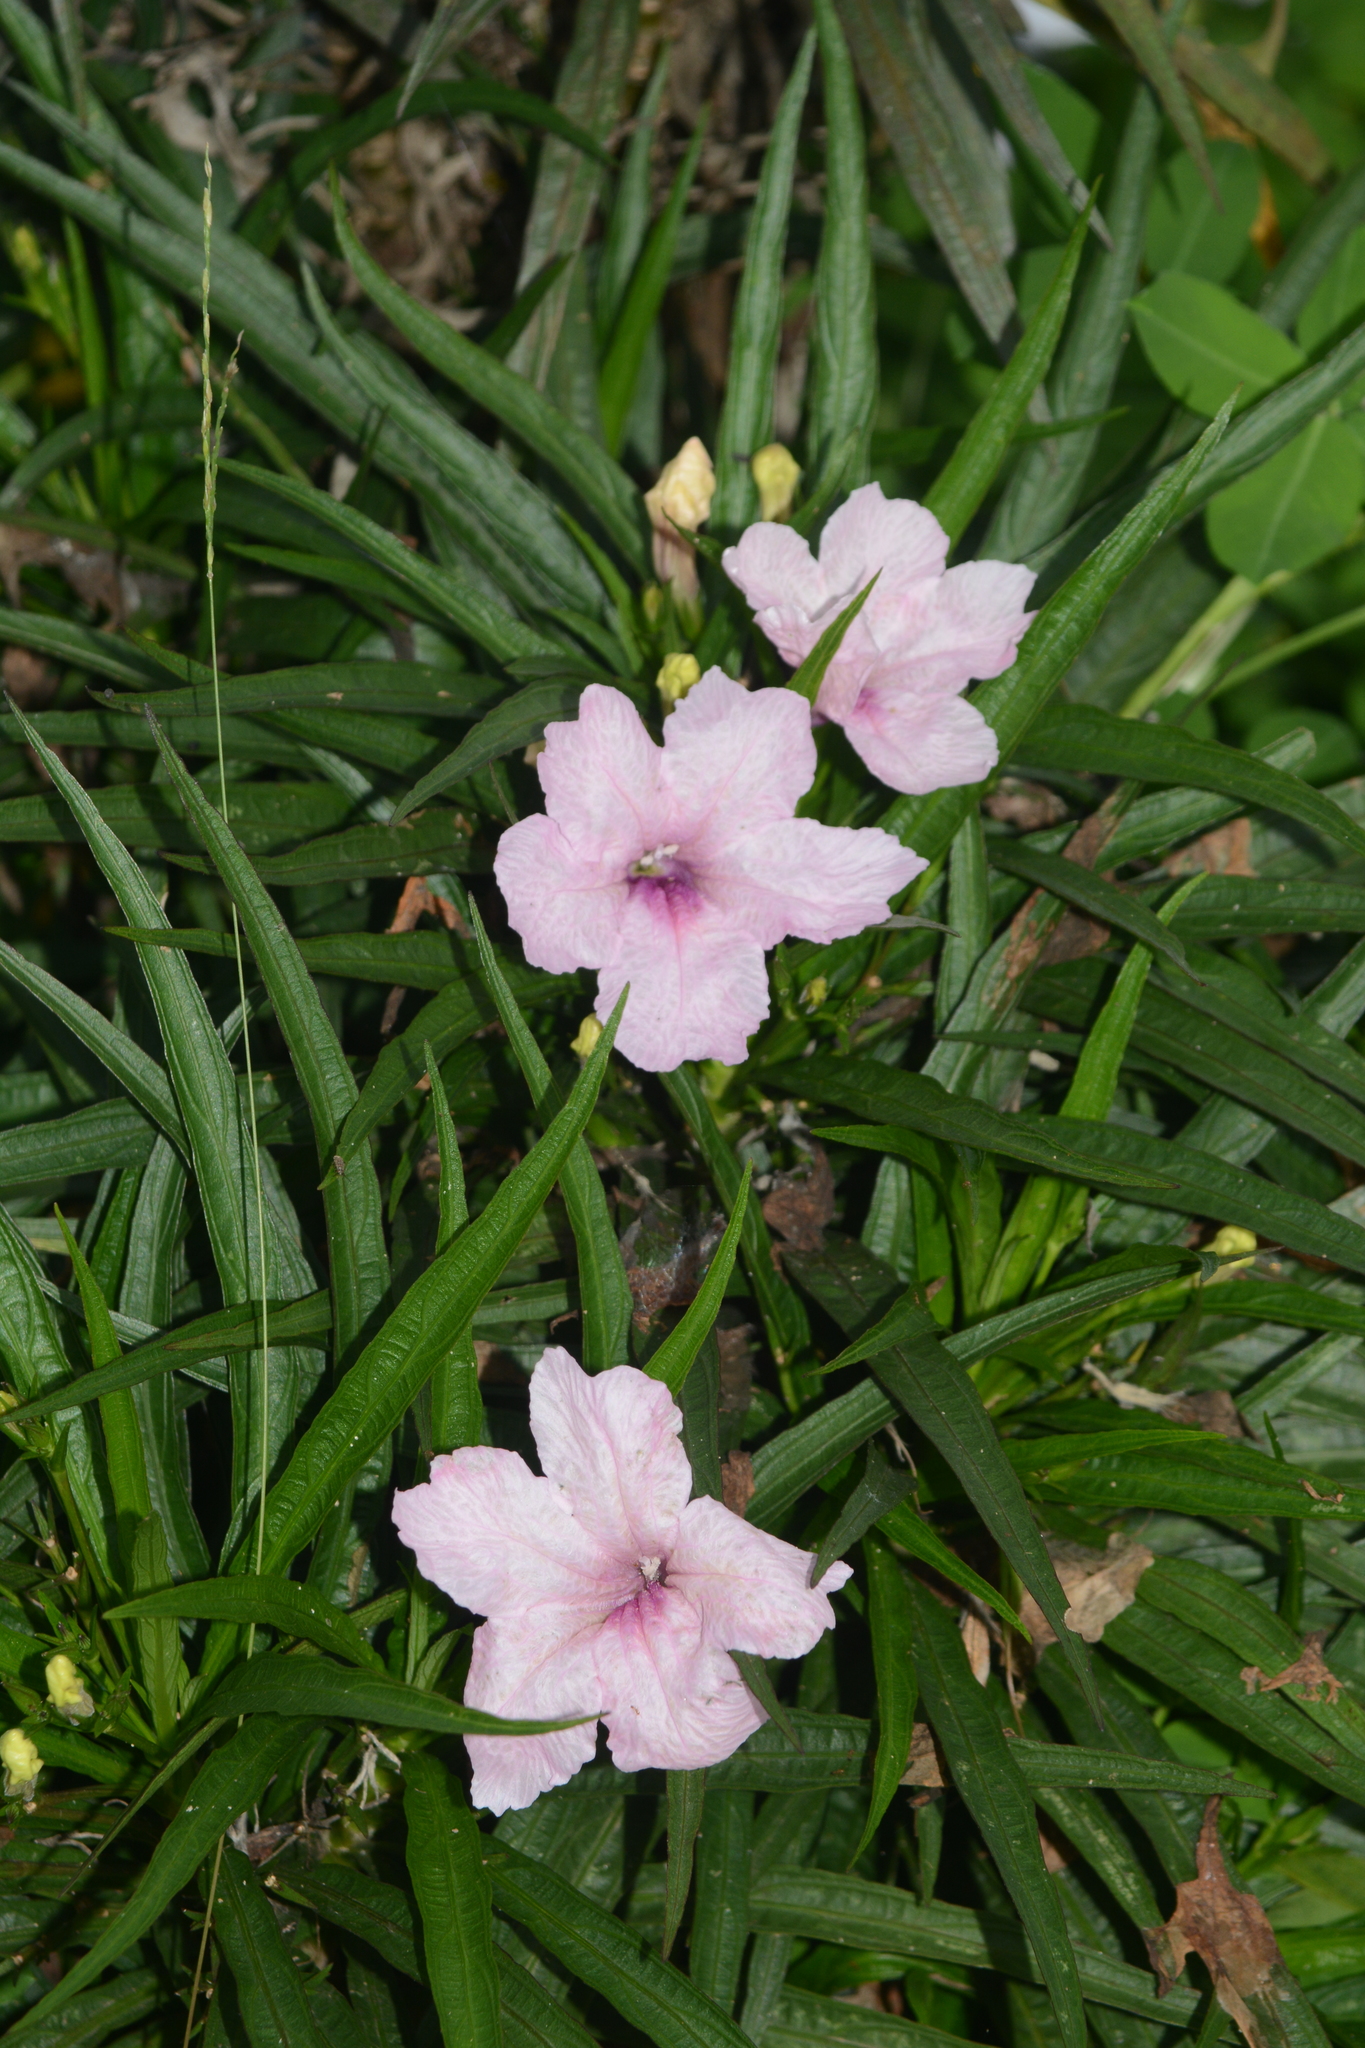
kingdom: Plantae
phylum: Tracheophyta
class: Magnoliopsida
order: Lamiales
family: Acanthaceae
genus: Ruellia
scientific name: Ruellia simplex
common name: Softseed wild petunia
